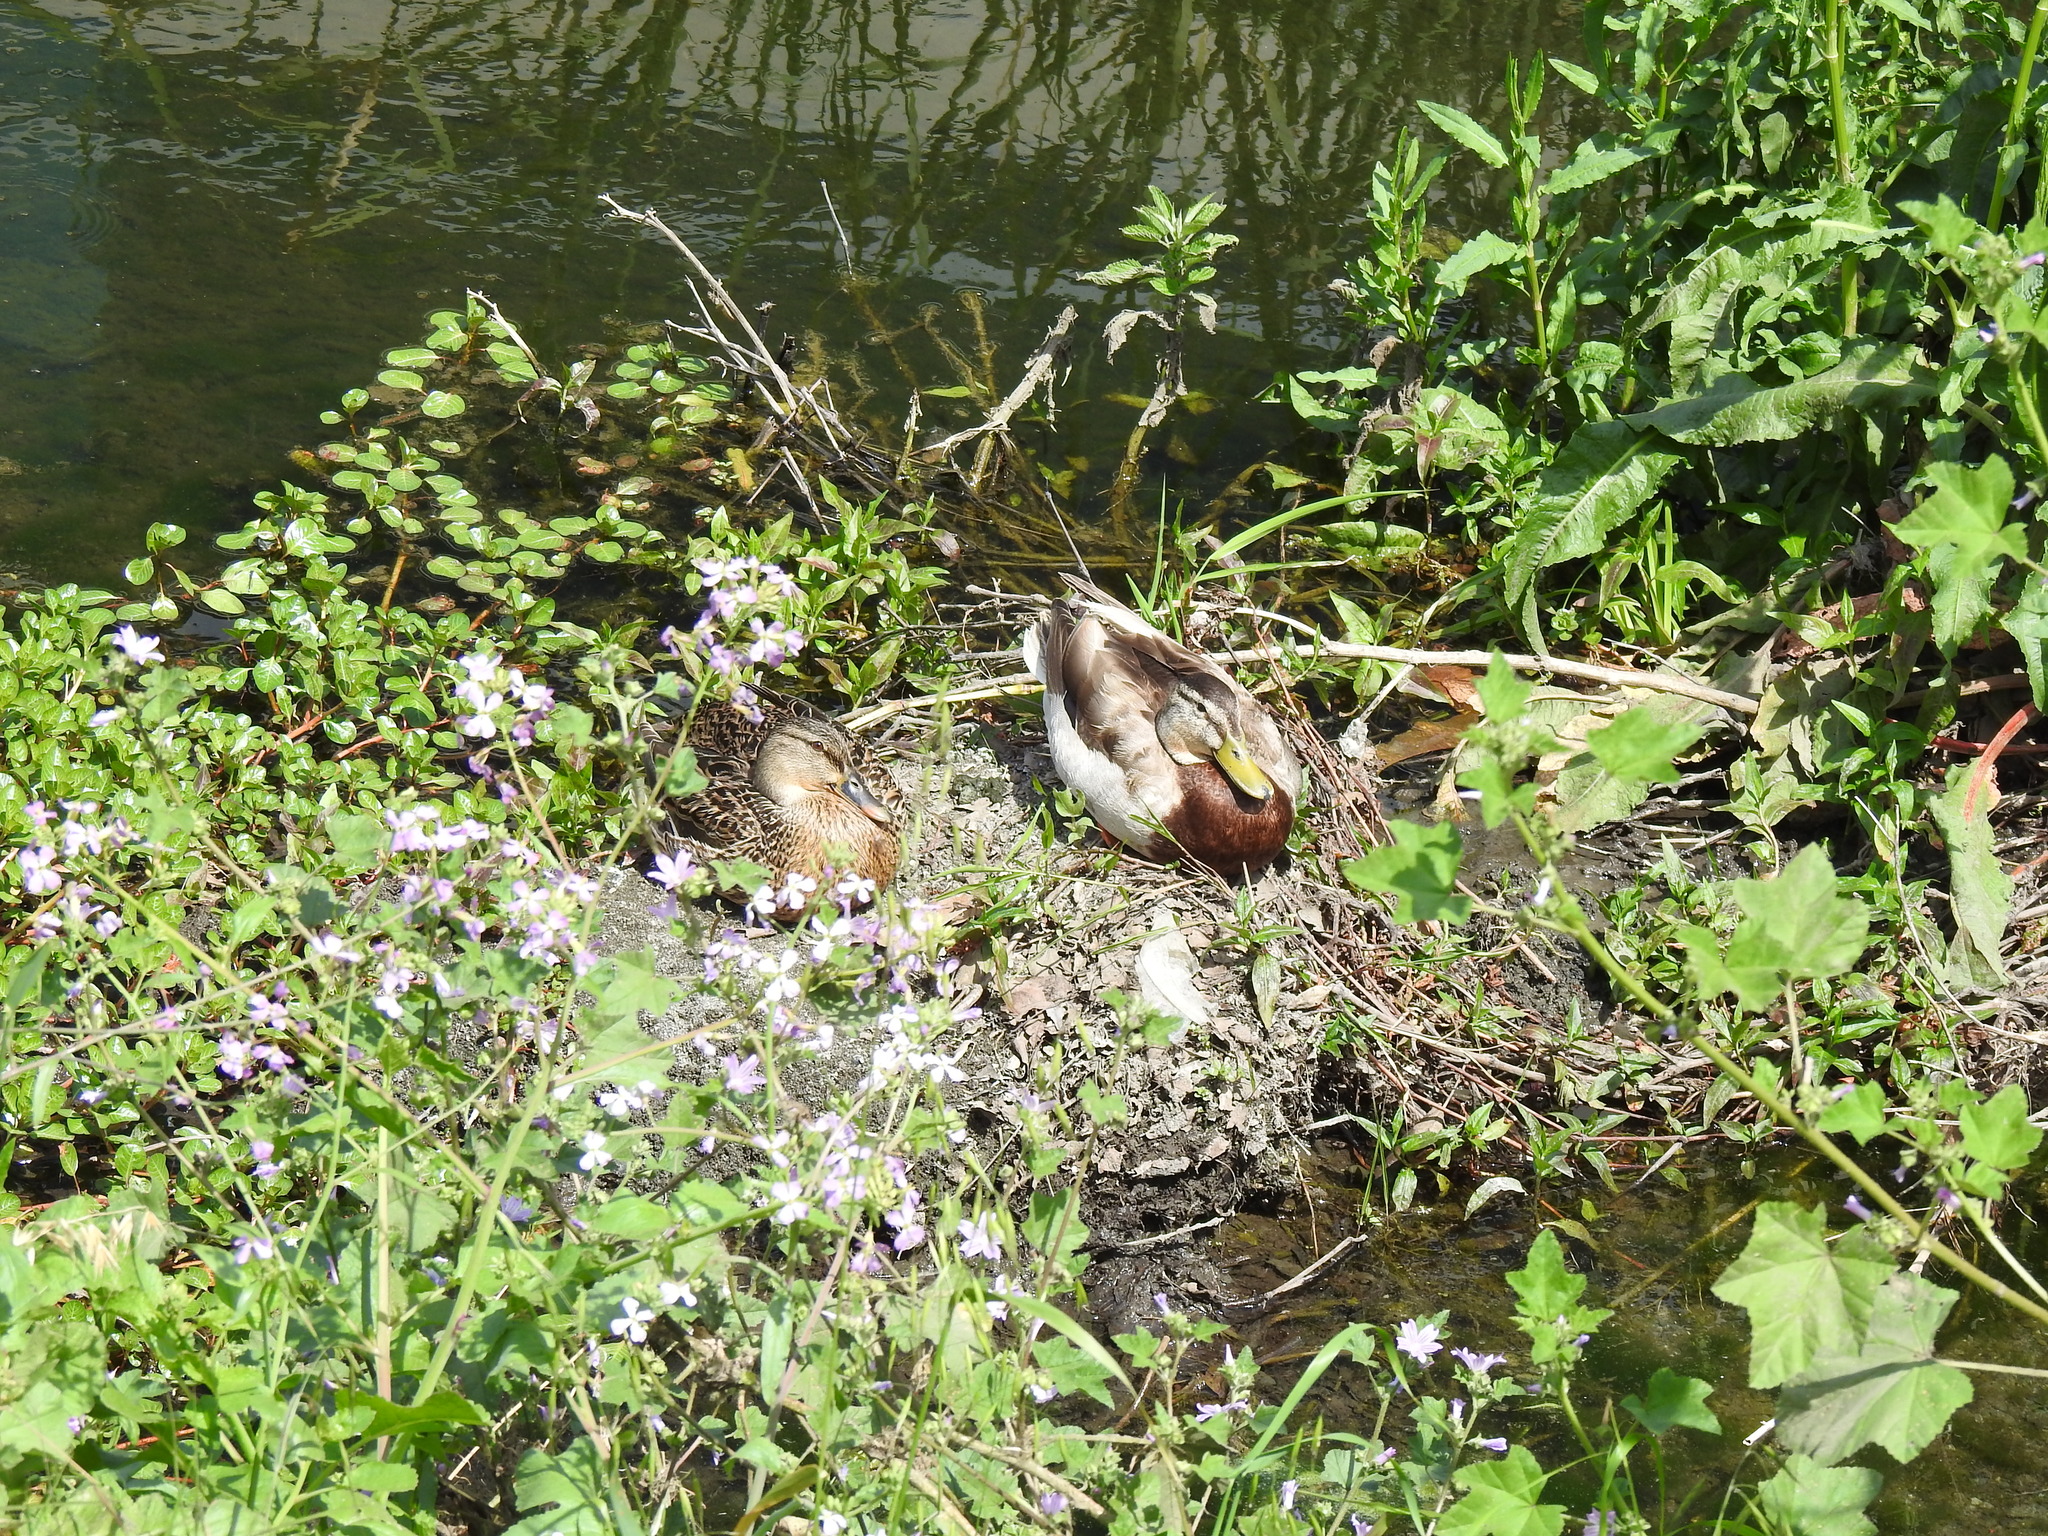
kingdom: Animalia
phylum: Chordata
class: Aves
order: Anseriformes
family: Anatidae
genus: Anas
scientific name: Anas platyrhynchos
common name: Mallard
